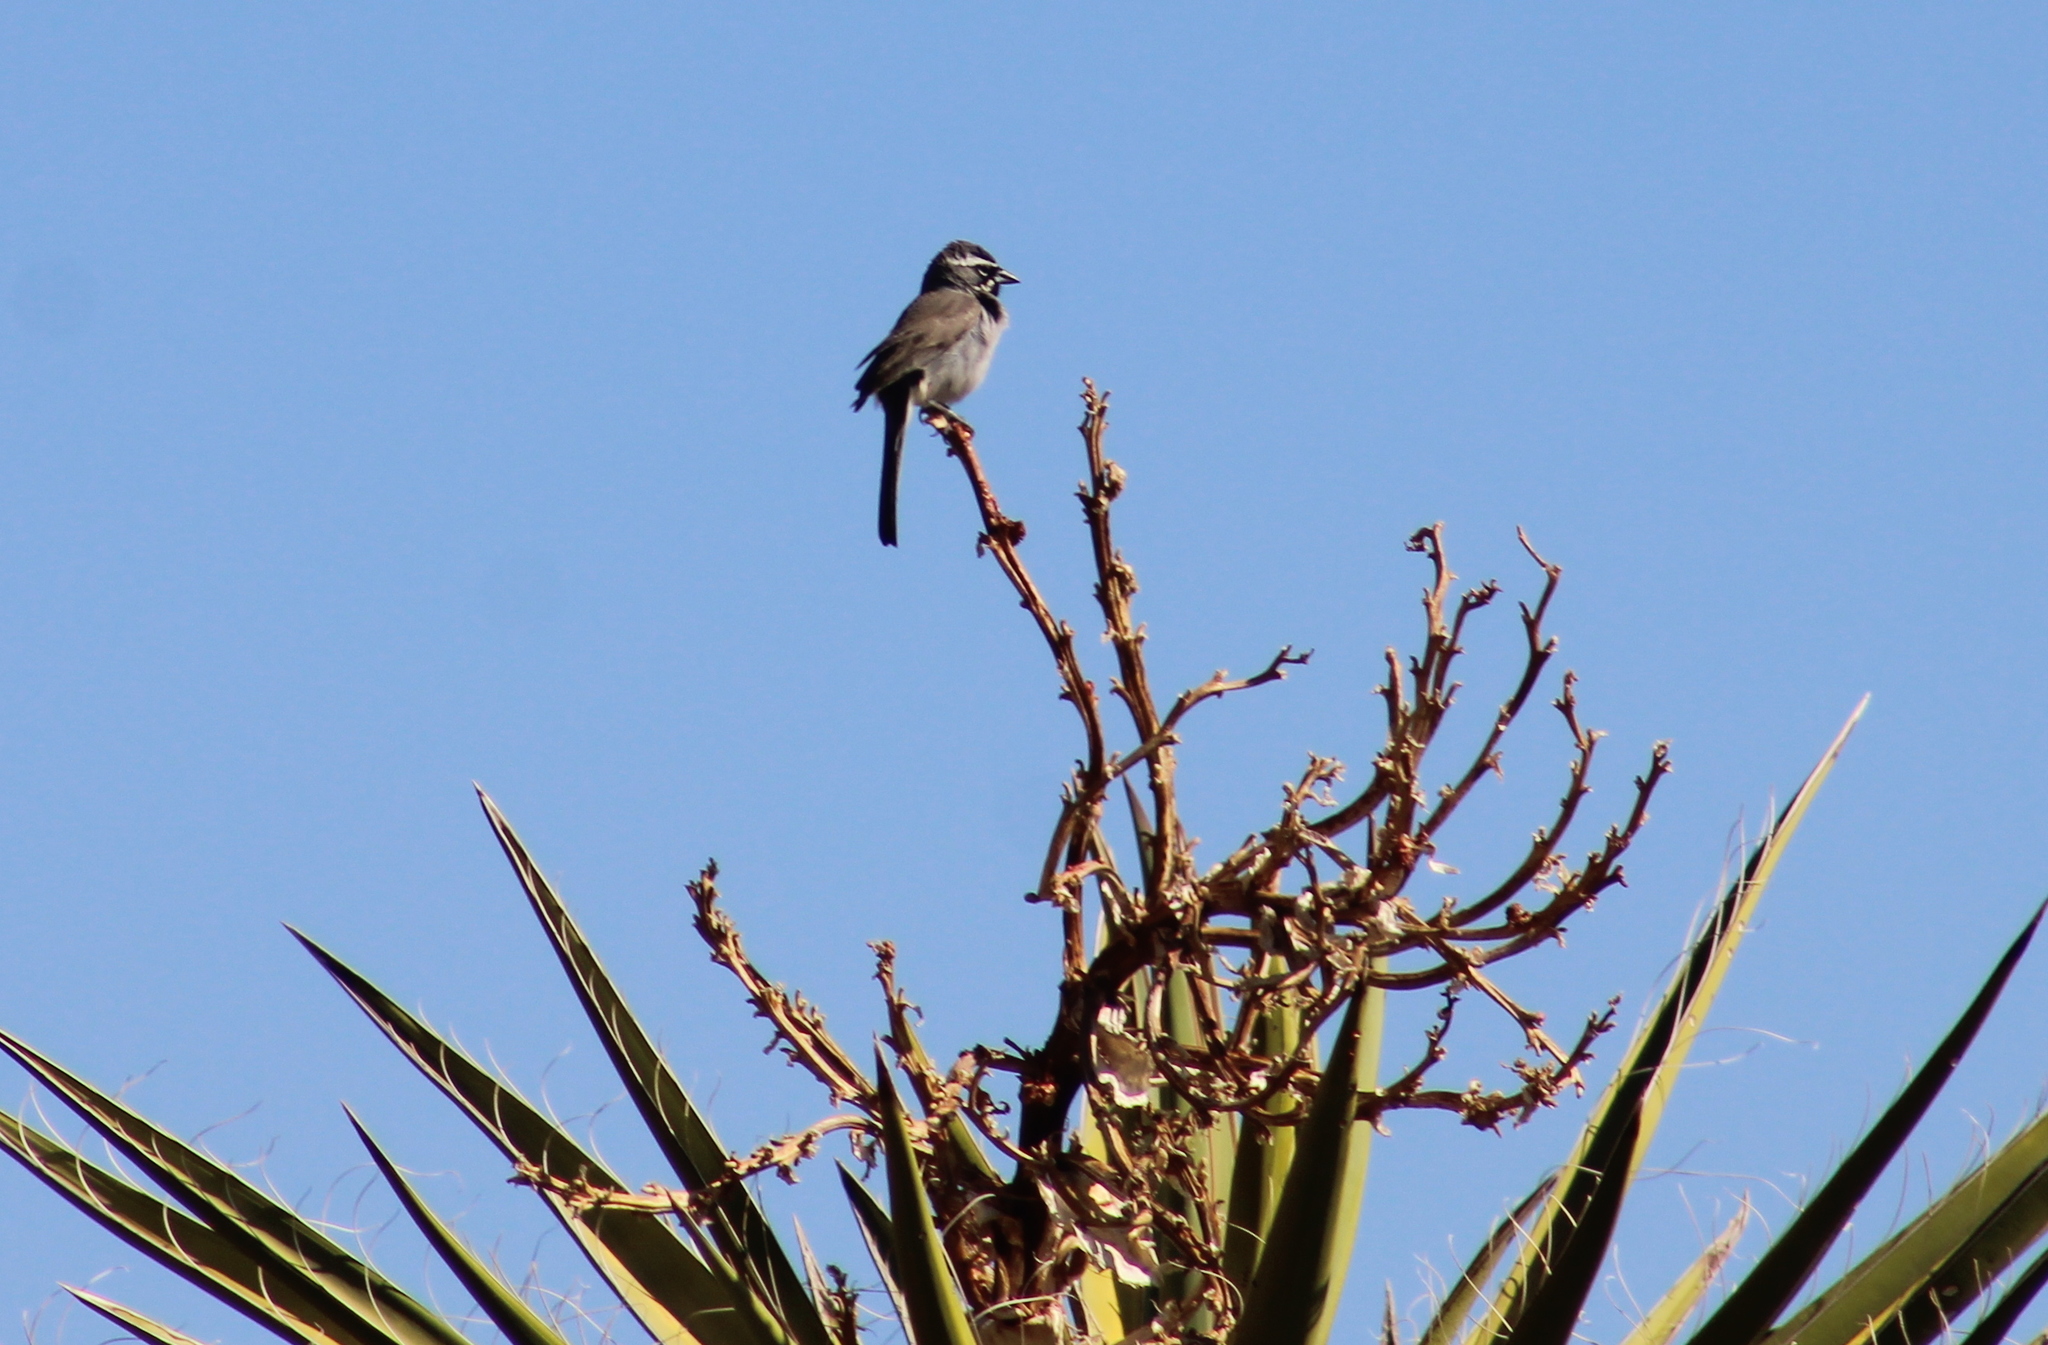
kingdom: Animalia
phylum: Chordata
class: Aves
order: Passeriformes
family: Passerellidae
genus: Amphispiza
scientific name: Amphispiza bilineata
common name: Black-throated sparrow
